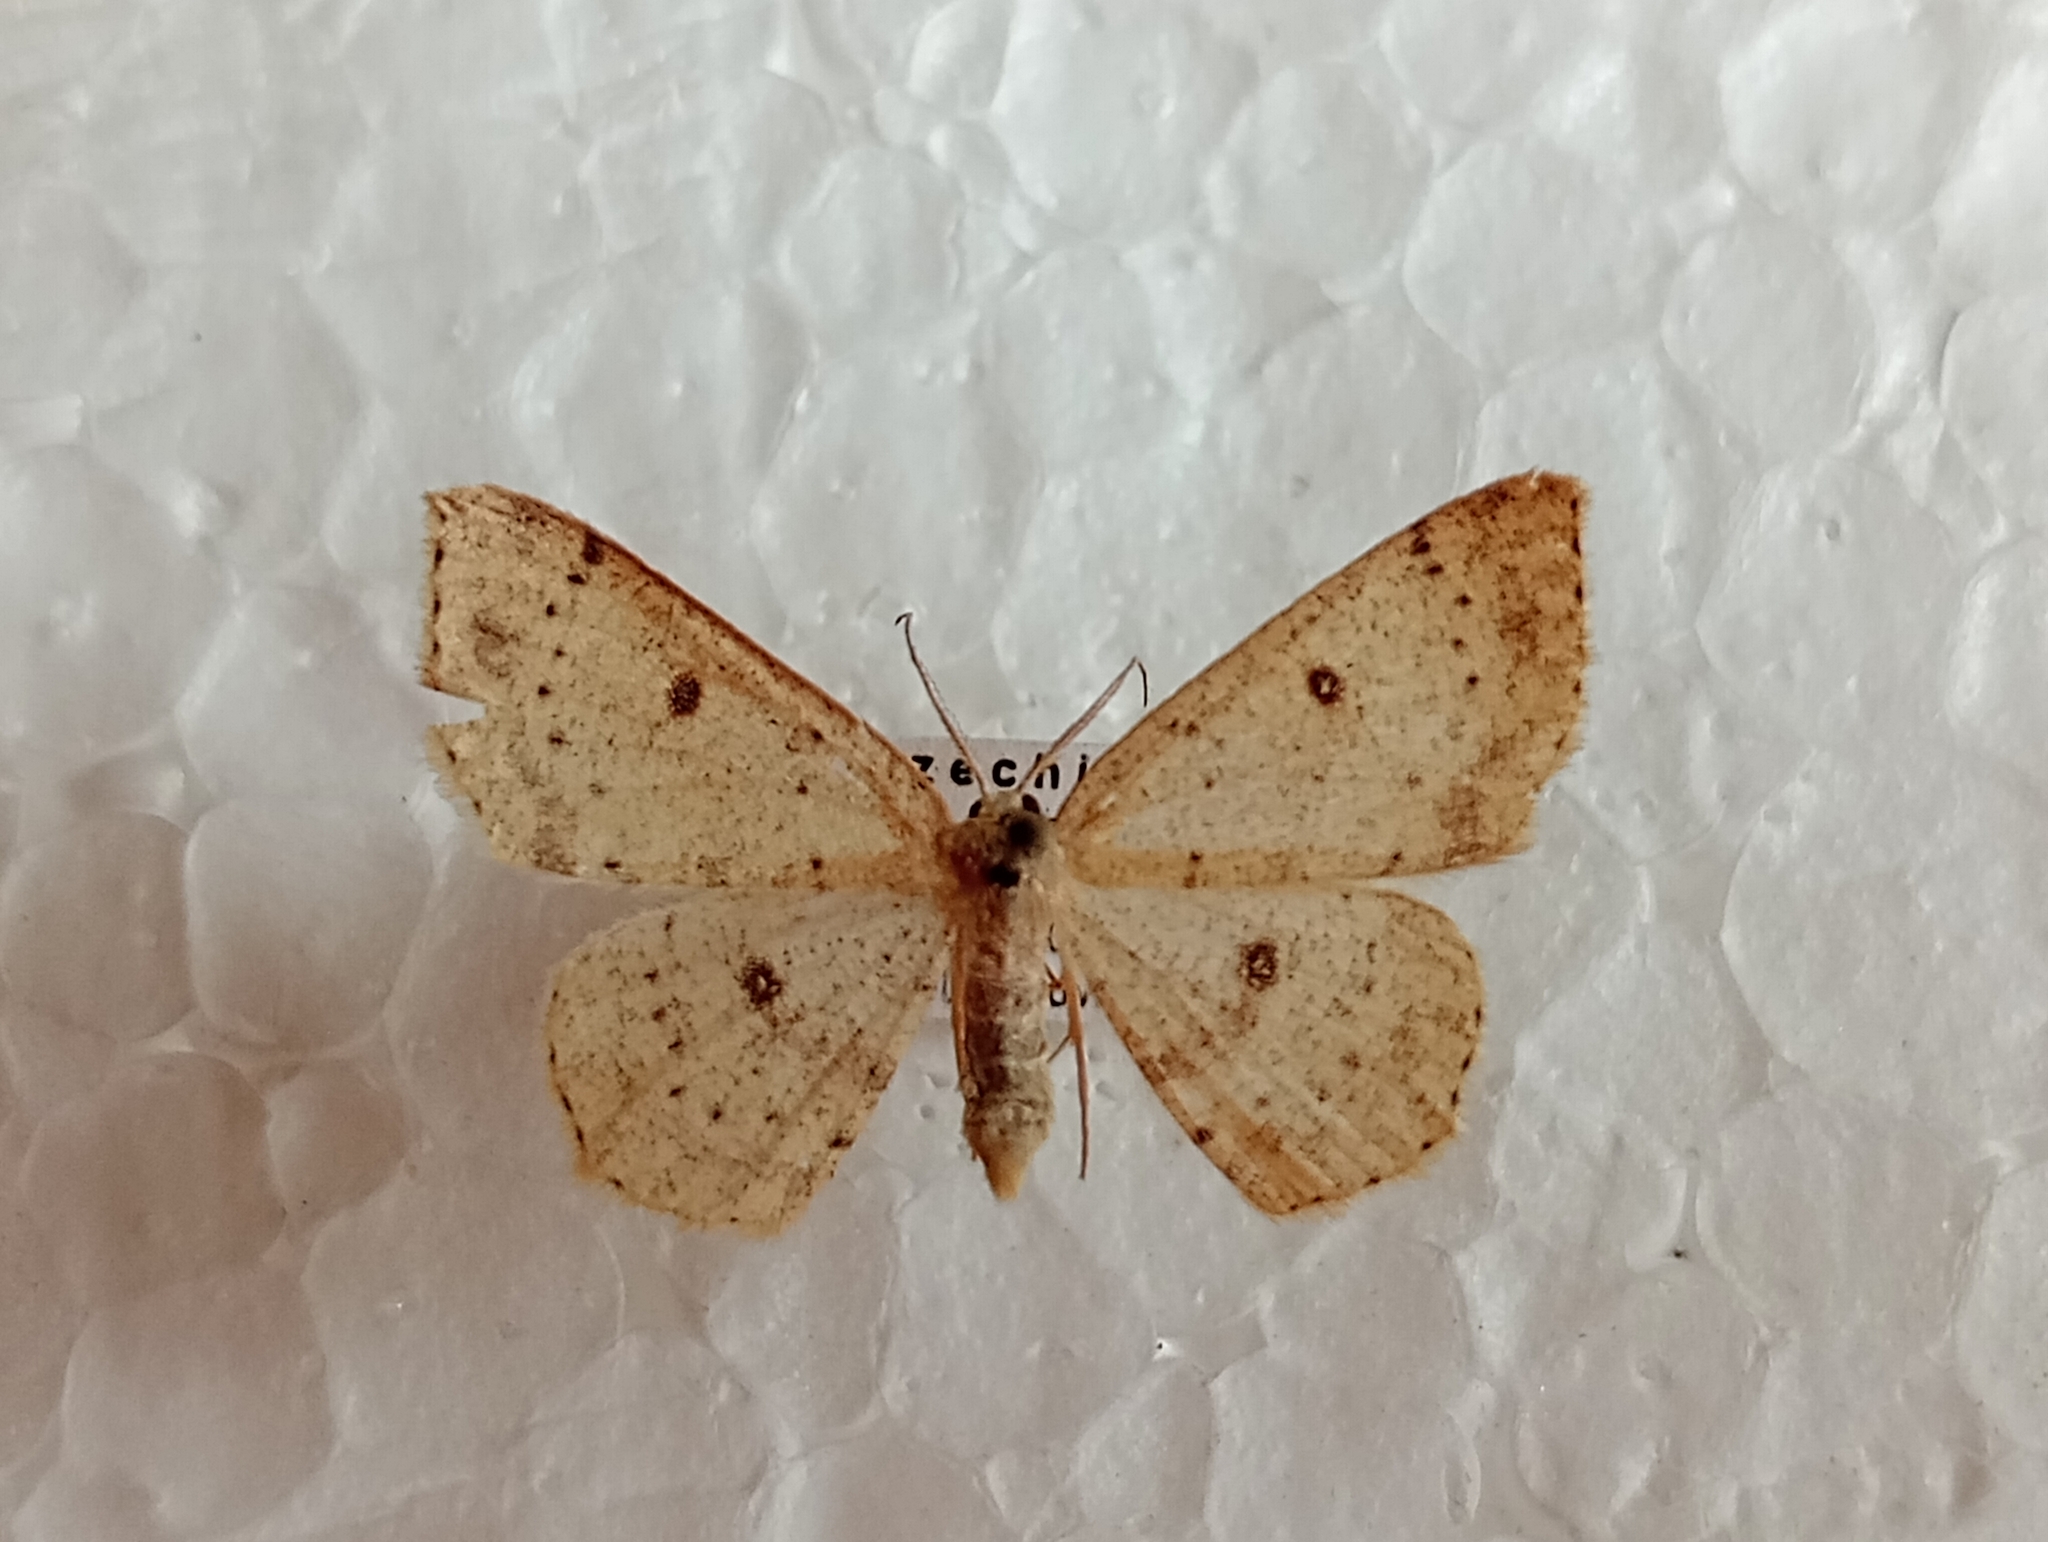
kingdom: Animalia
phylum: Arthropoda
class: Insecta
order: Lepidoptera
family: Geometridae
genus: Cyclophora
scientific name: Cyclophora albipunctata
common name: Birch mocha
